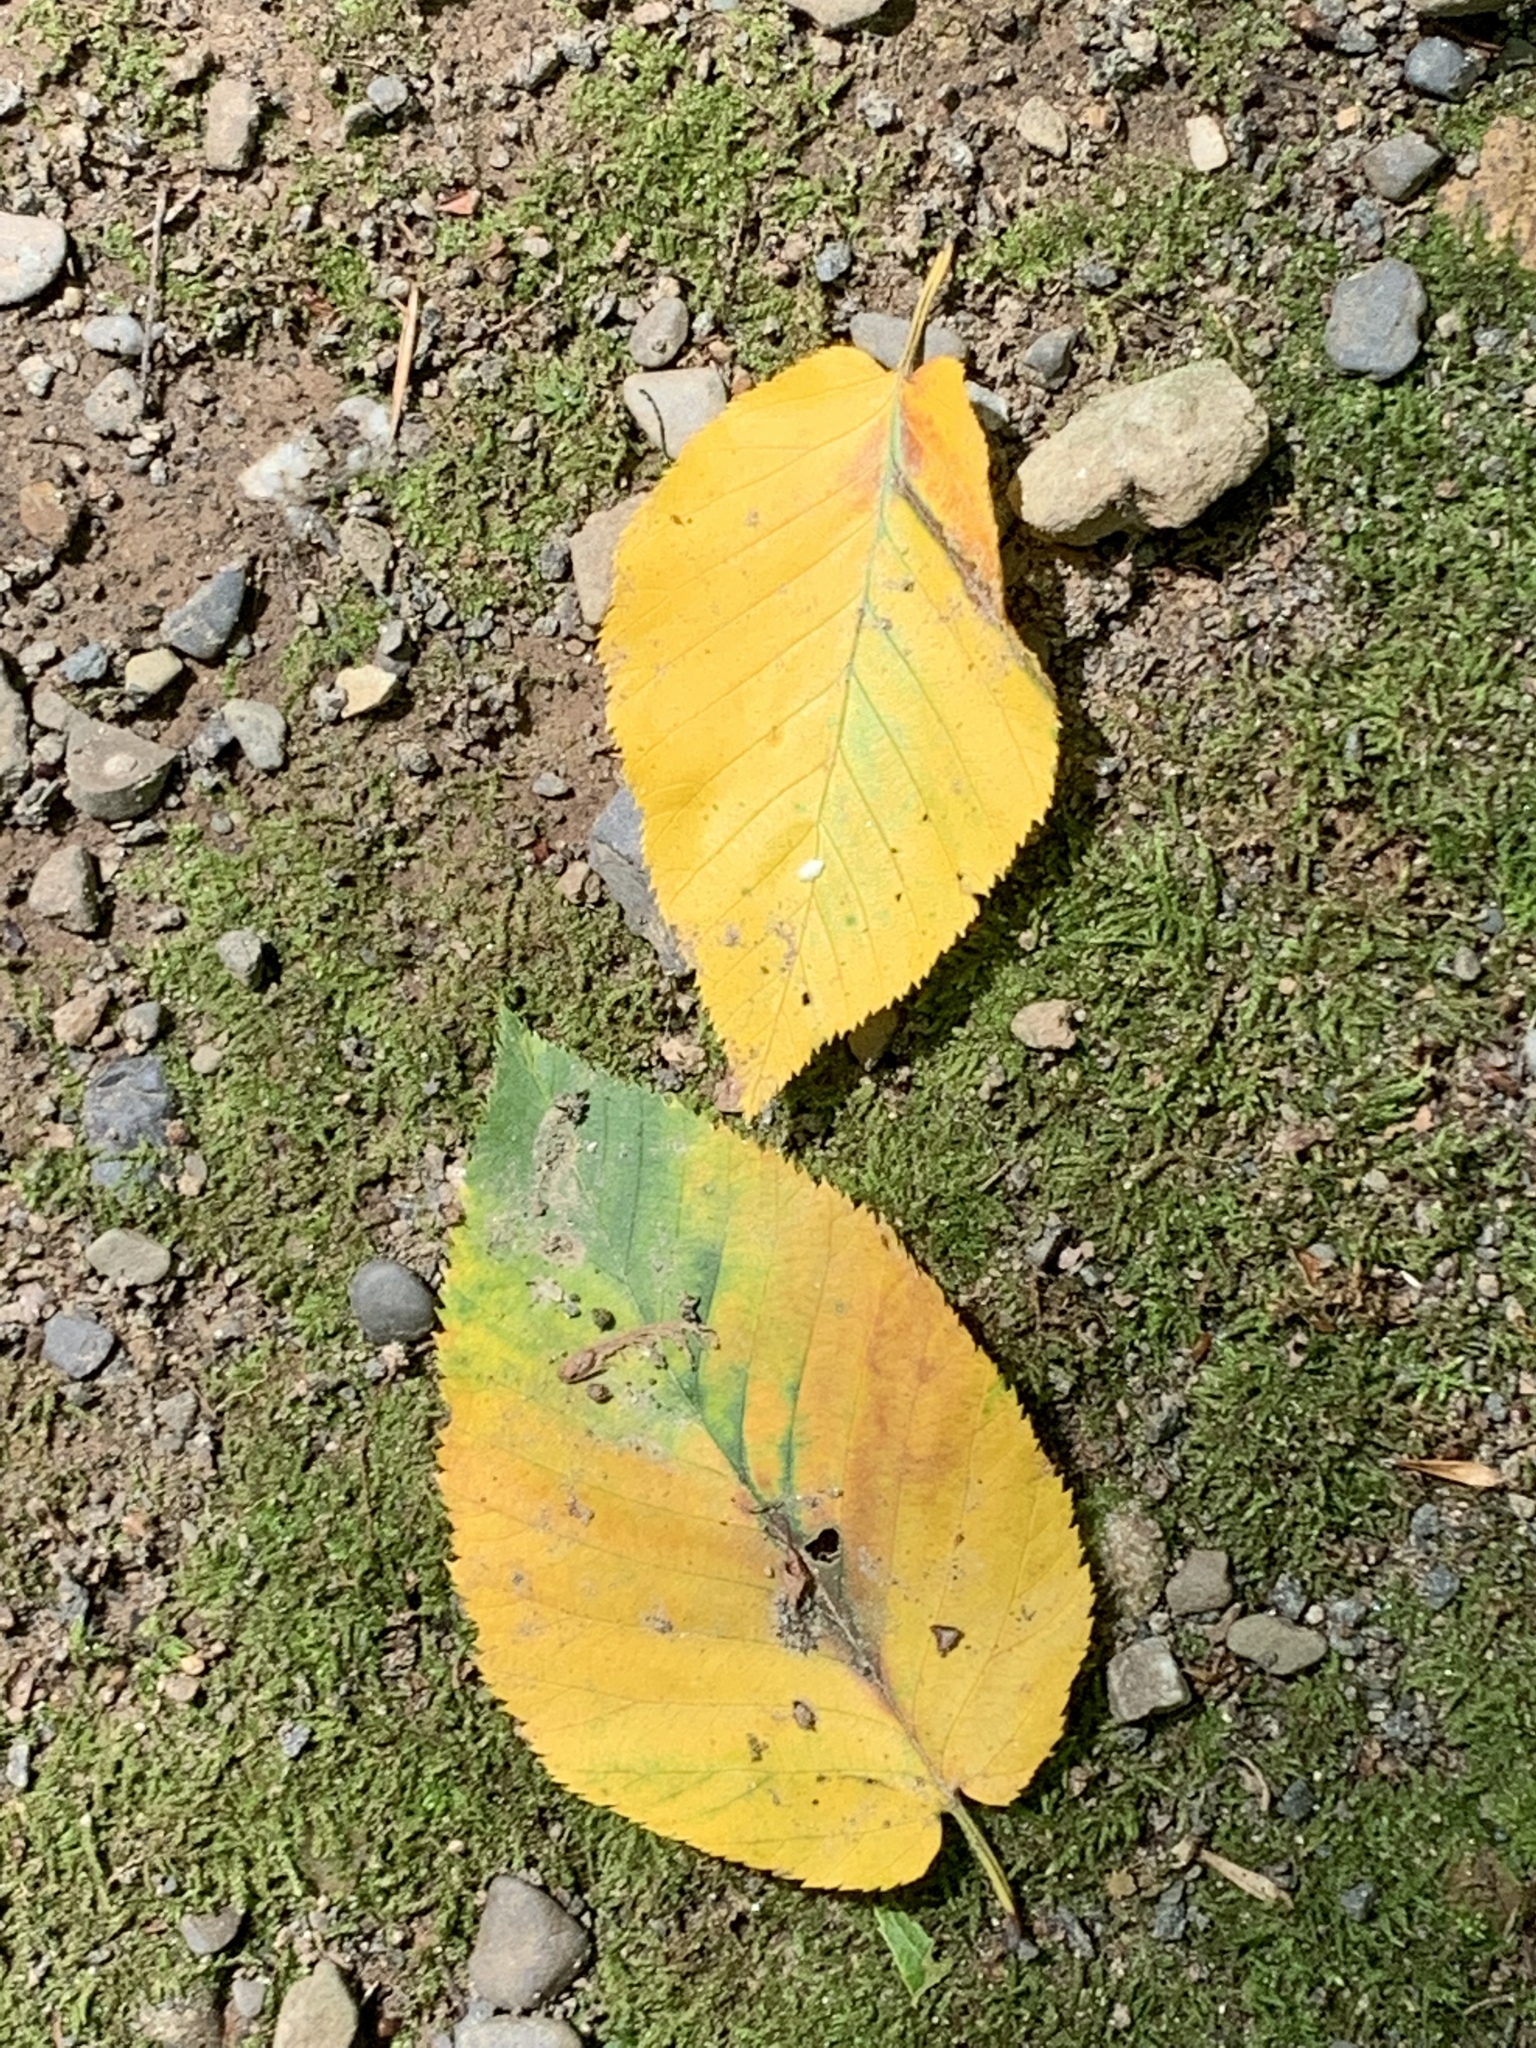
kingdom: Plantae
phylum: Tracheophyta
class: Magnoliopsida
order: Fagales
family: Betulaceae
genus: Betula
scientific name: Betula lenta
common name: Black birch
